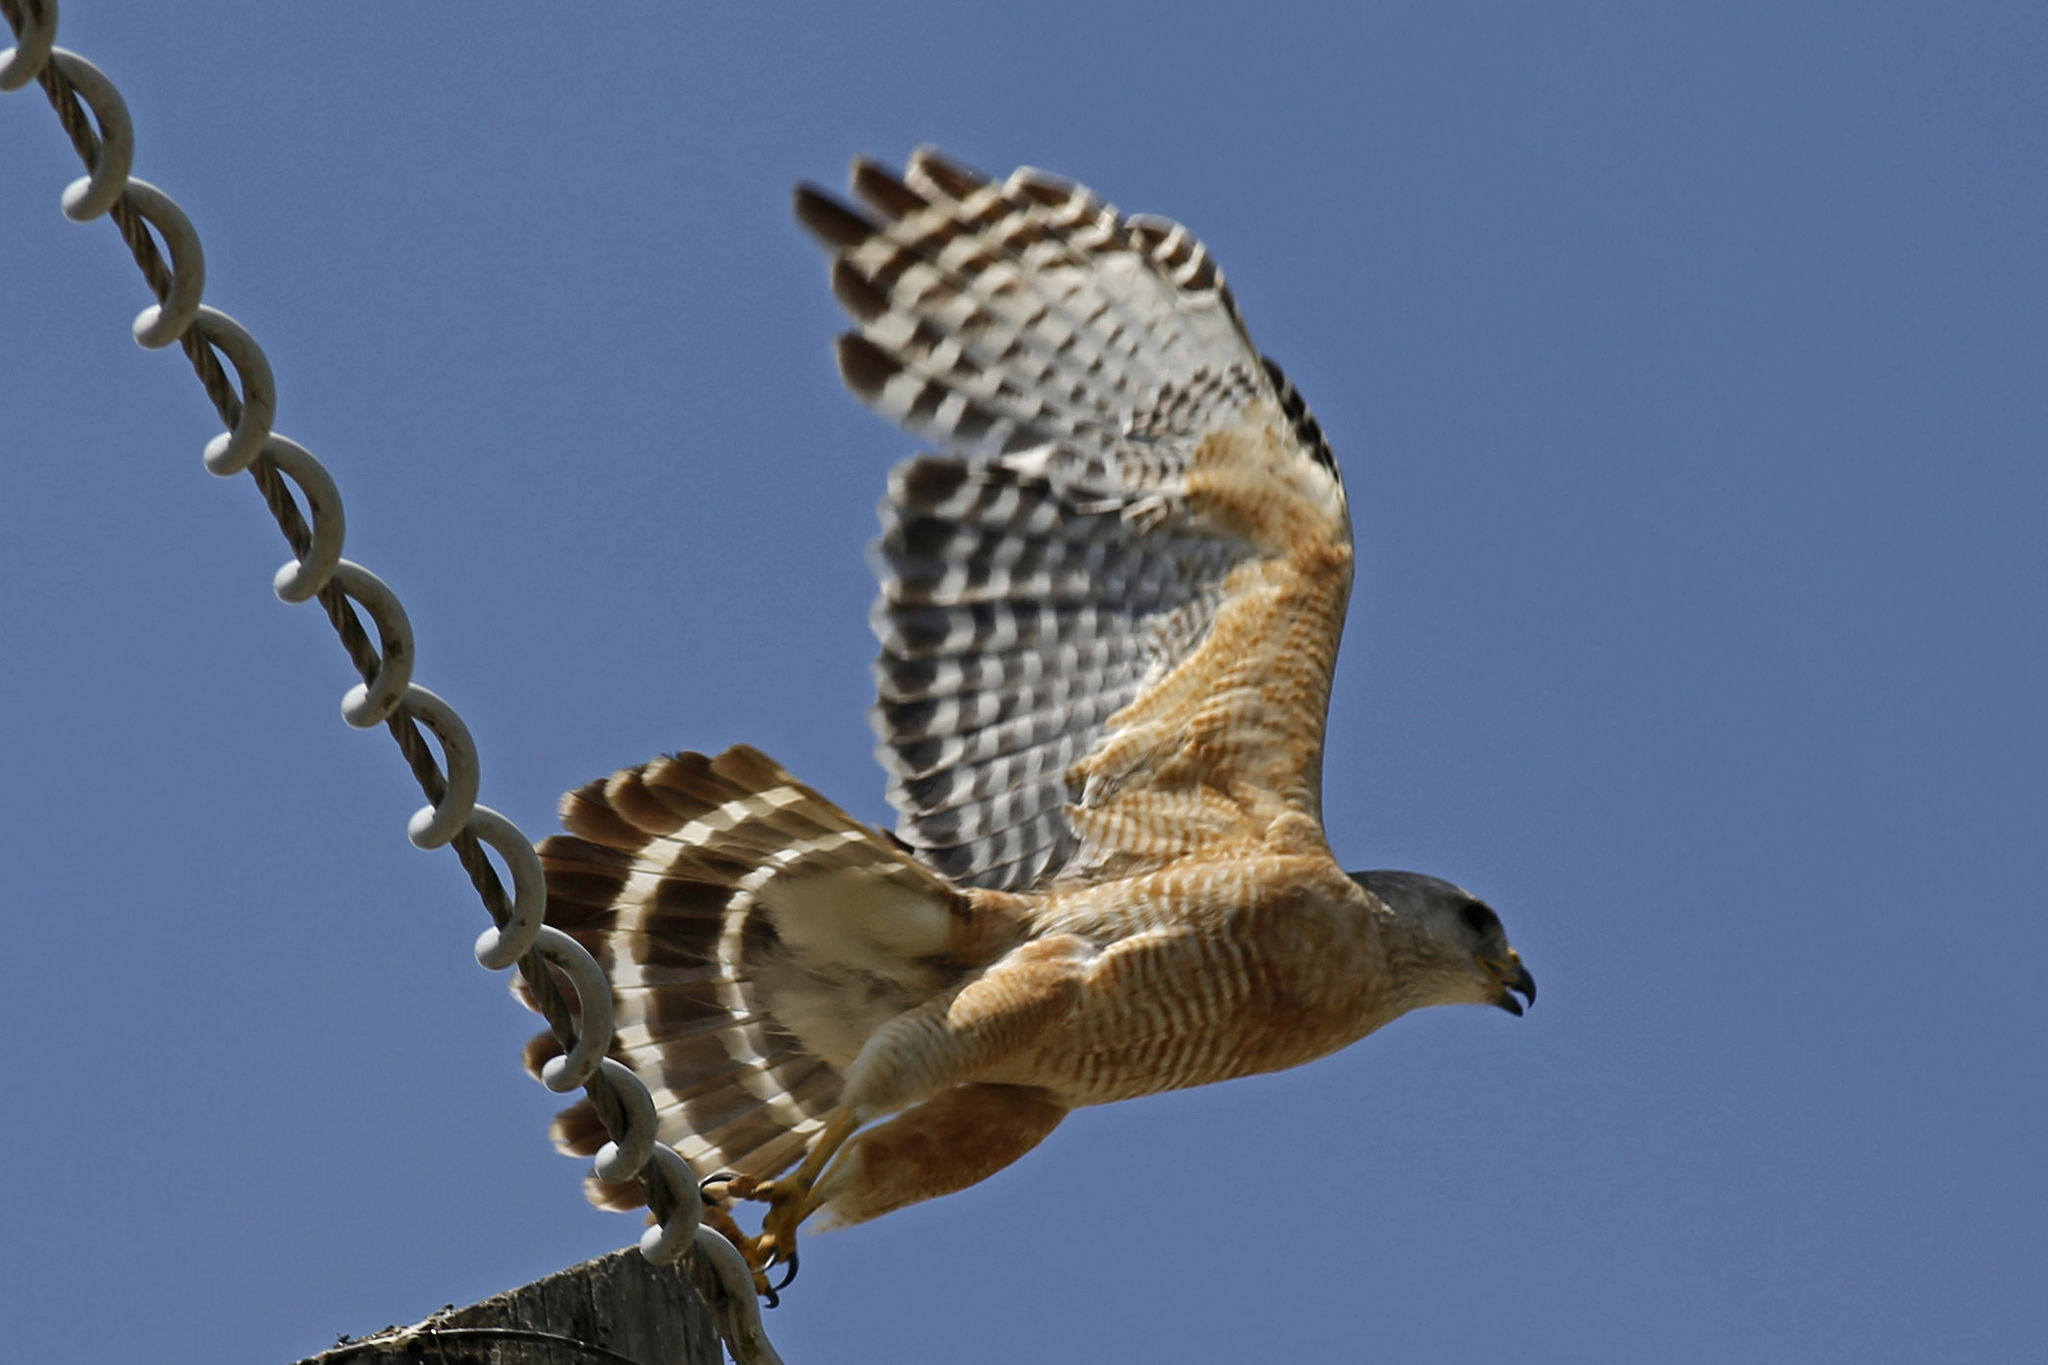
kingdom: Animalia
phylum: Chordata
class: Aves
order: Accipitriformes
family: Accipitridae
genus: Buteo
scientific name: Buteo lineatus
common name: Red-shouldered hawk
